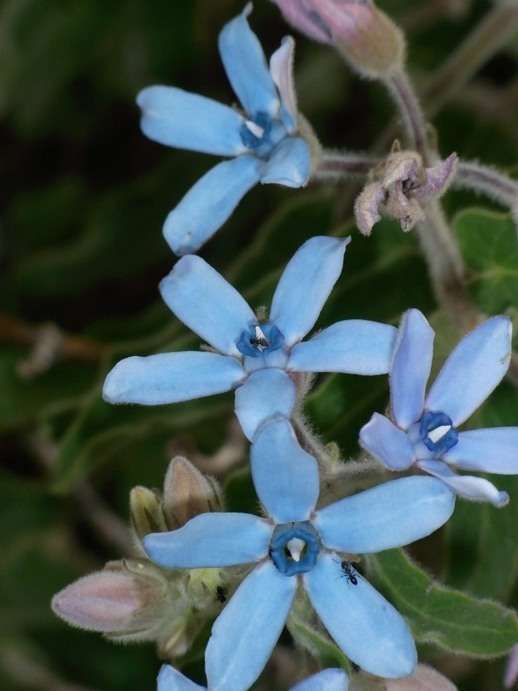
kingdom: Plantae
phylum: Tracheophyta
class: Magnoliopsida
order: Gentianales
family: Apocynaceae
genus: Oxypetalum
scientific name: Oxypetalum coeruleum
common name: Southern star
